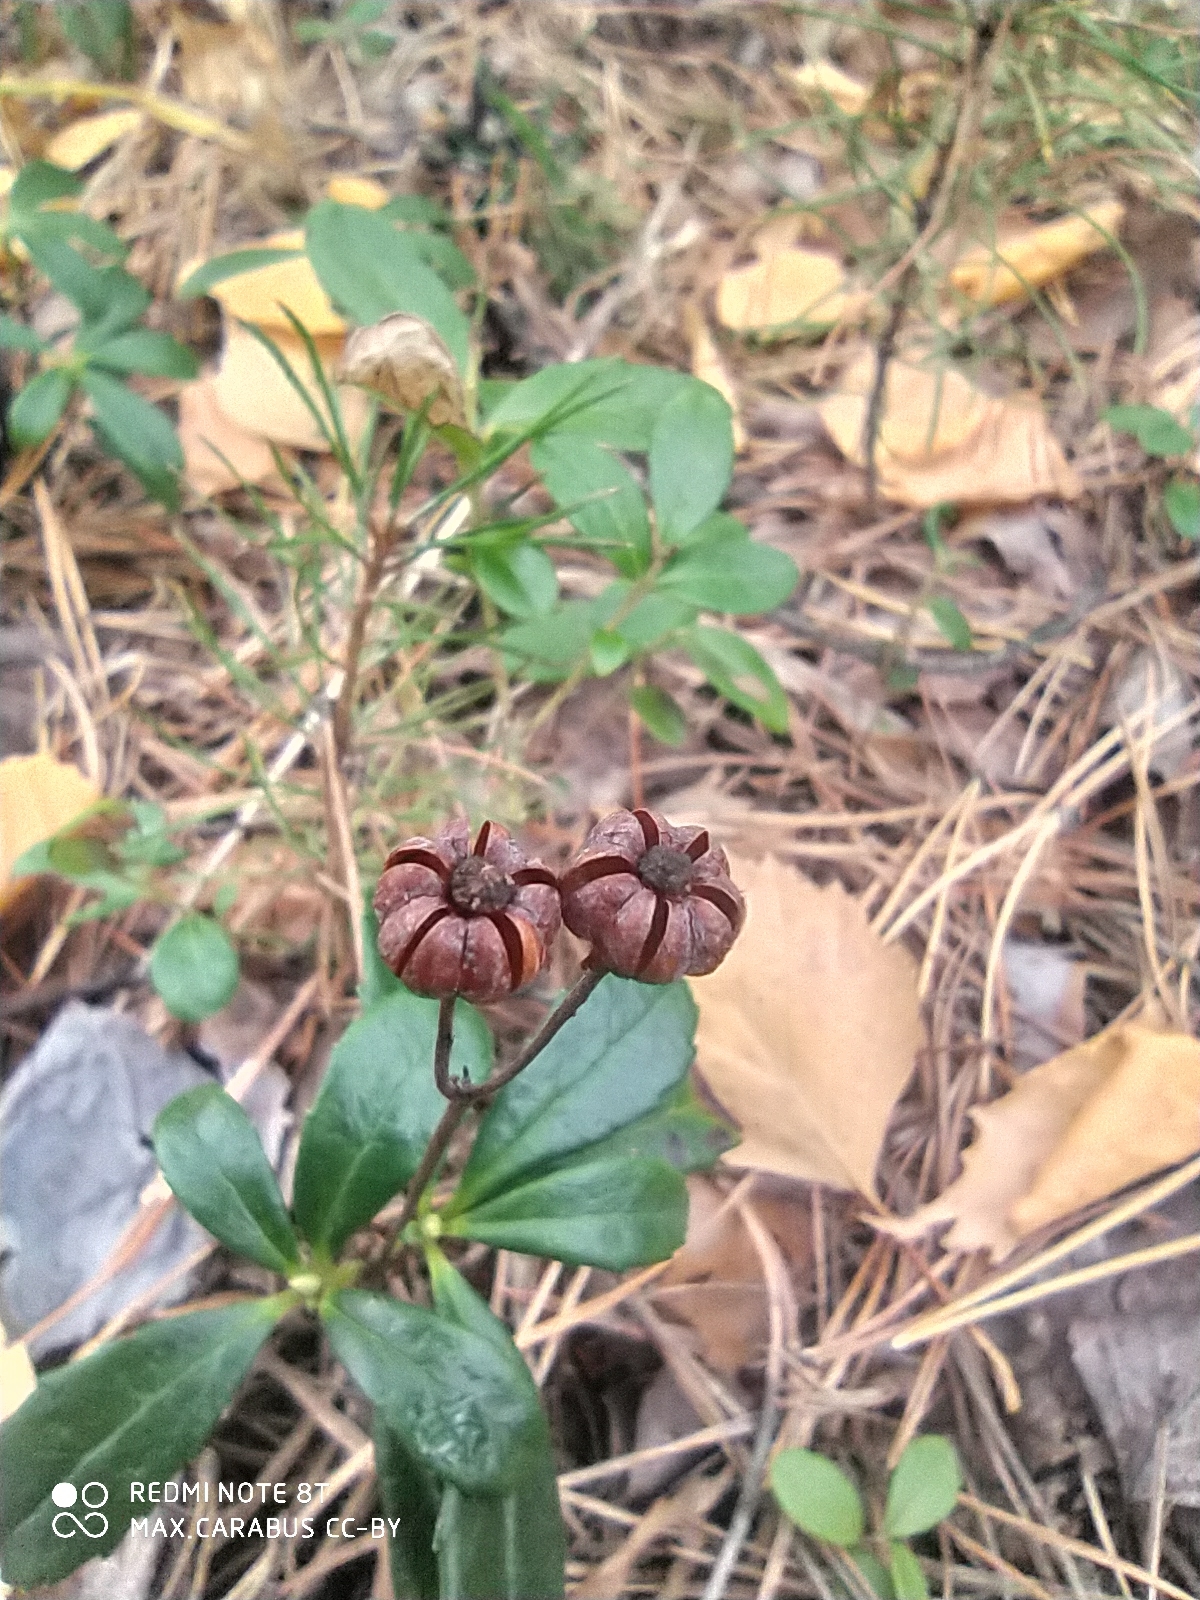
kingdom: Plantae
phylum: Tracheophyta
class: Magnoliopsida
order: Ericales
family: Ericaceae
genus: Chimaphila
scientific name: Chimaphila umbellata
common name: Pipsissewa
